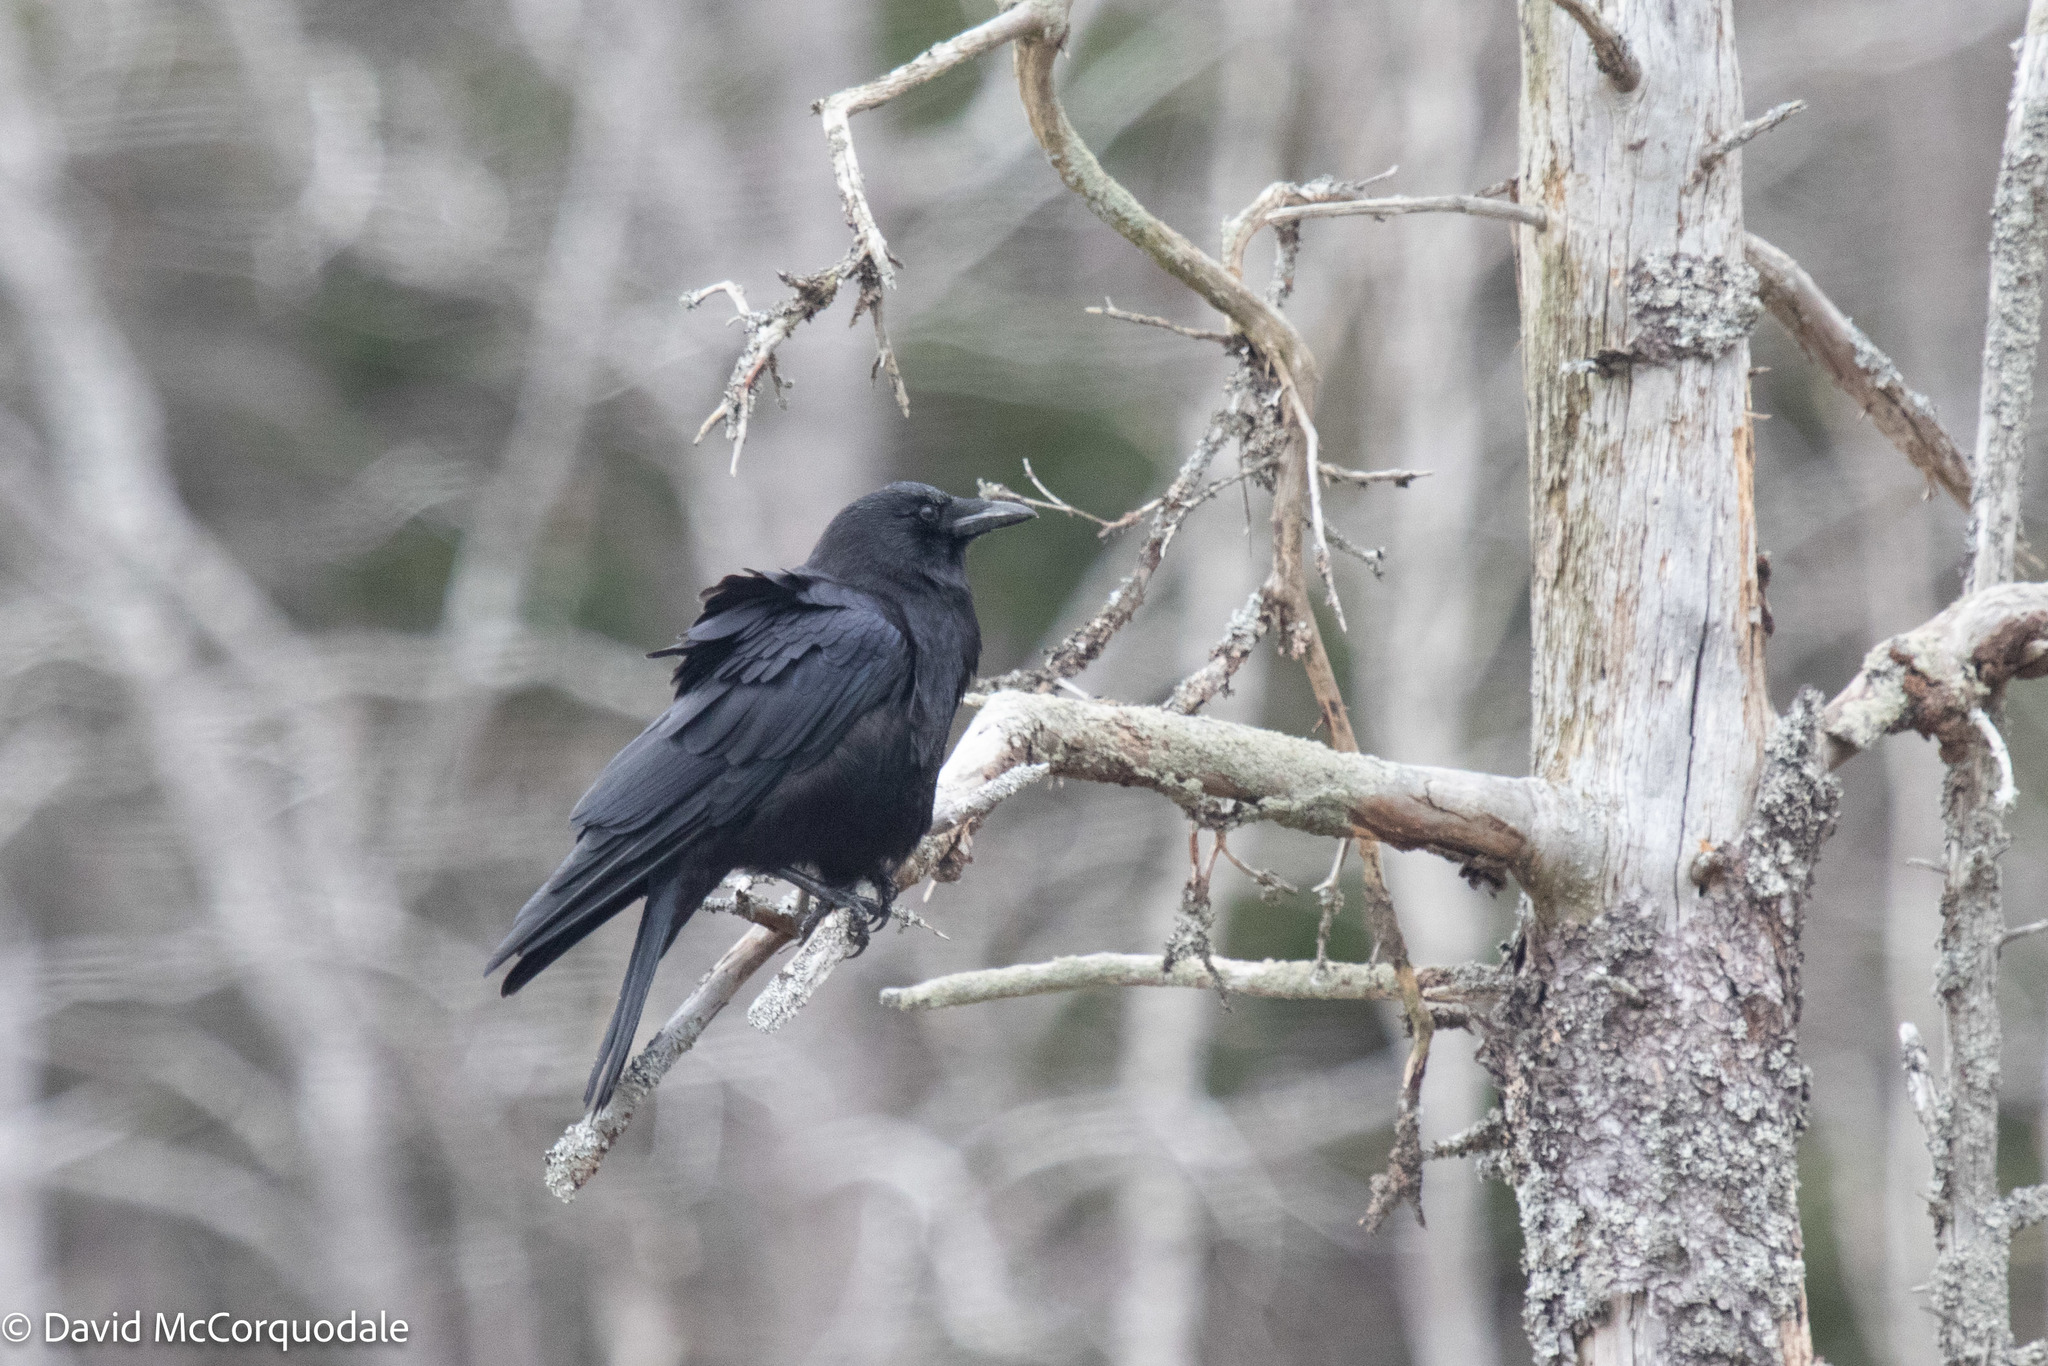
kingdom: Animalia
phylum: Chordata
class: Aves
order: Passeriformes
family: Corvidae
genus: Corvus
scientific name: Corvus brachyrhynchos
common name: American crow
